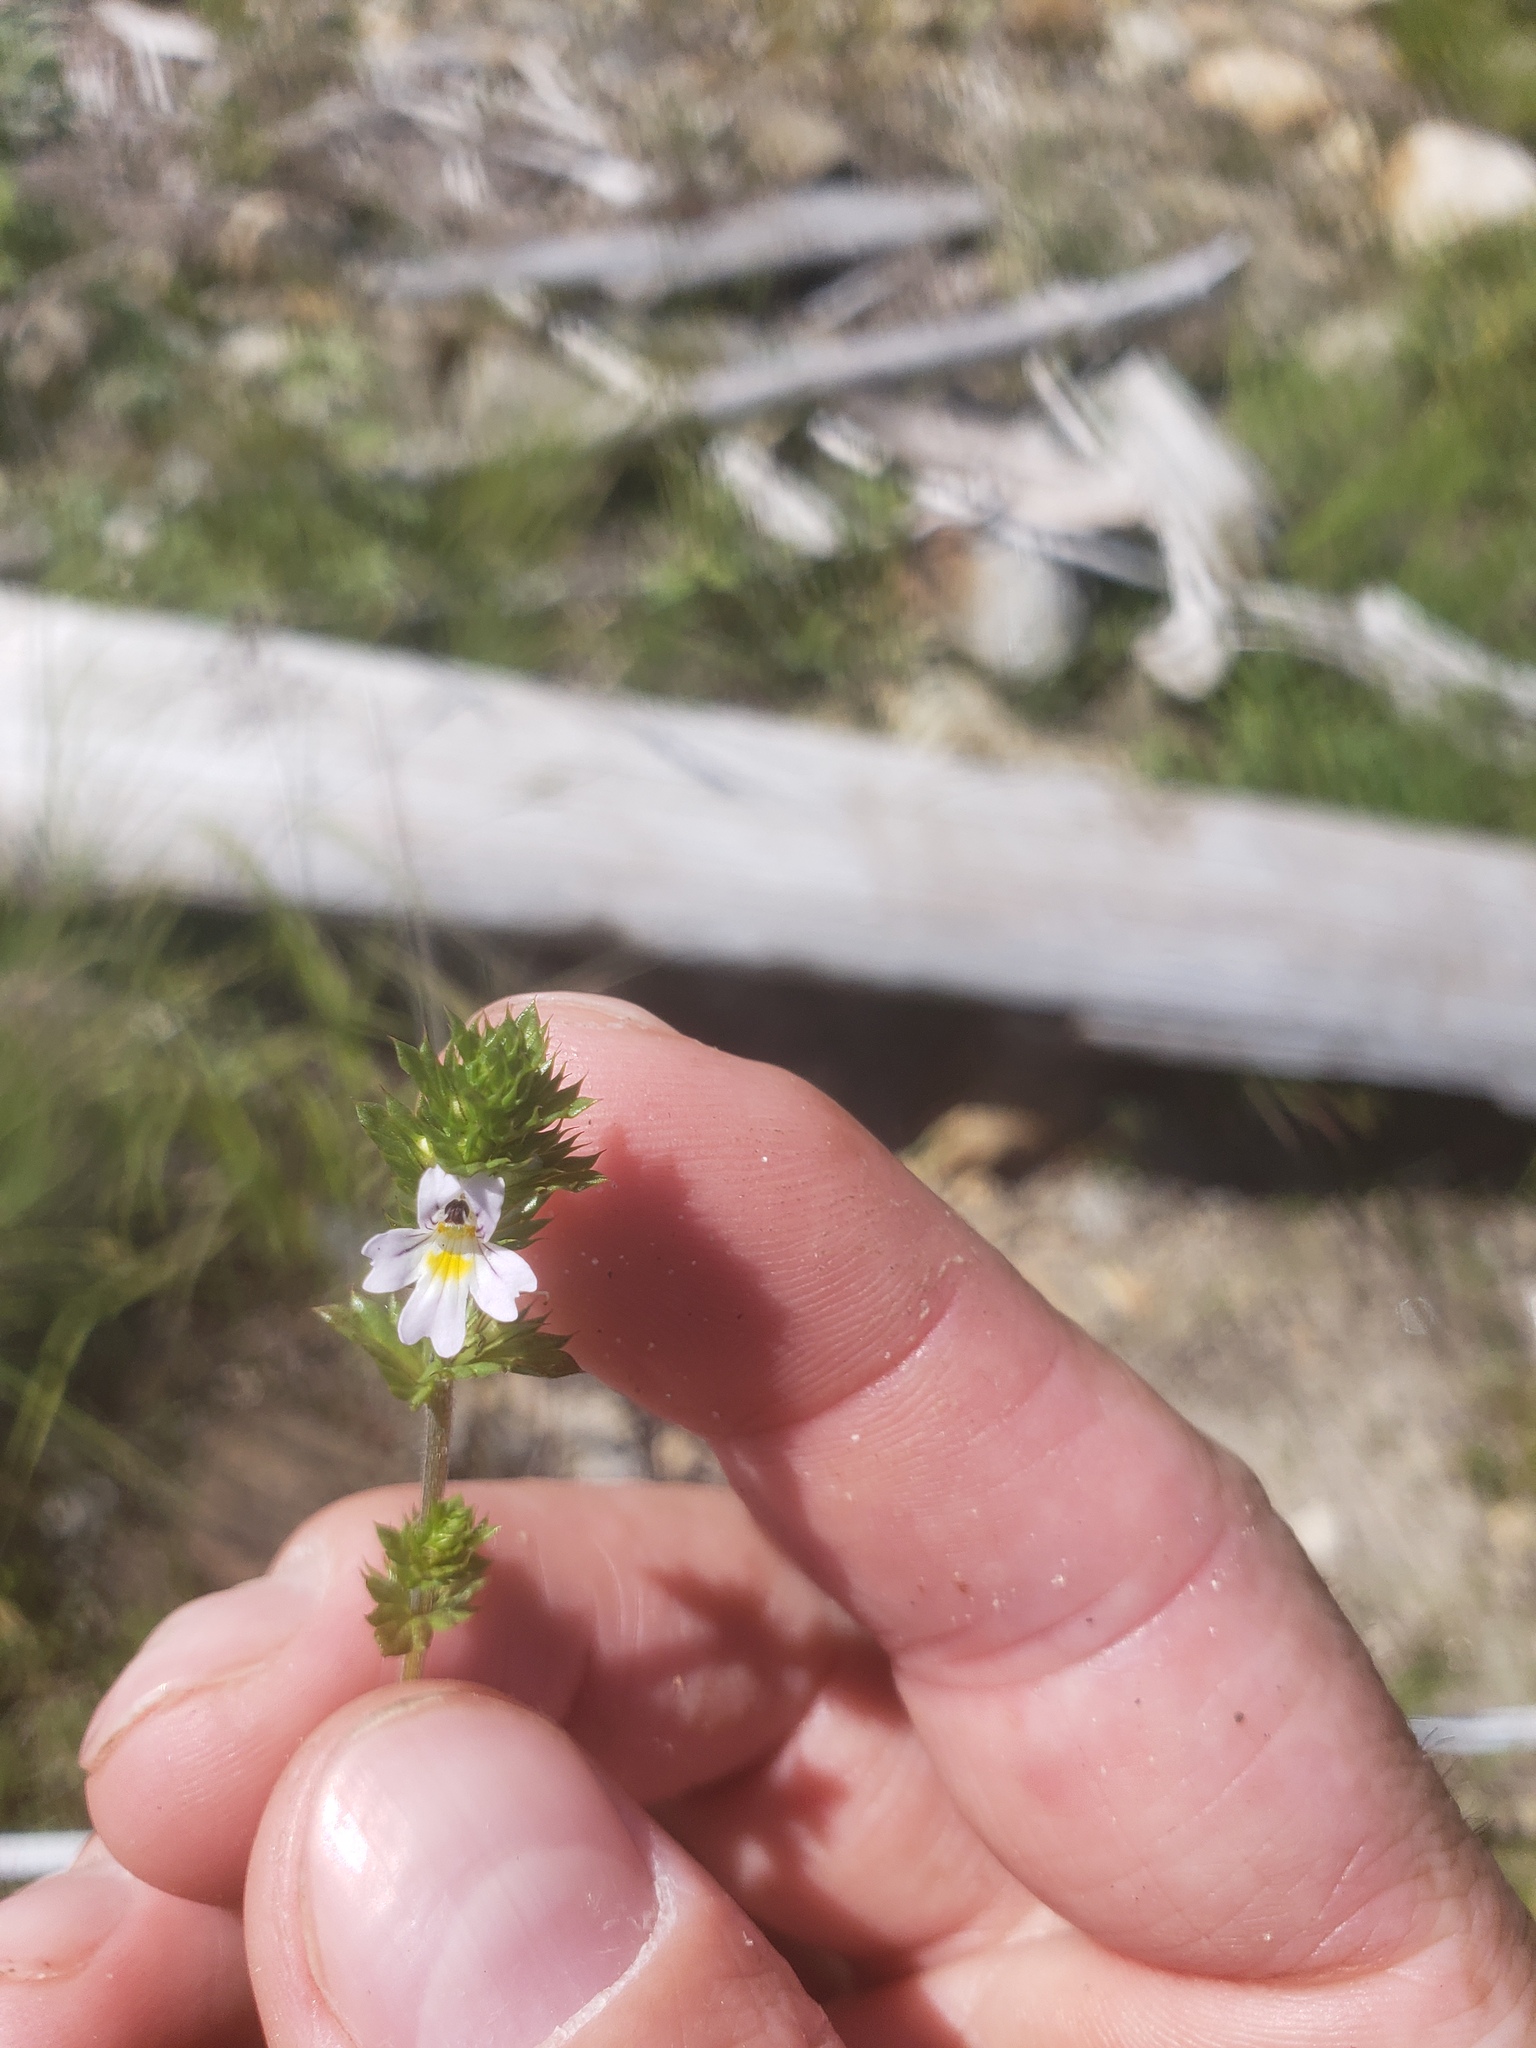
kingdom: Plantae
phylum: Tracheophyta
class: Magnoliopsida
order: Lamiales
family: Orobanchaceae
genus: Euphrasia
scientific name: Euphrasia nemorosa
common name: Common eyebright
